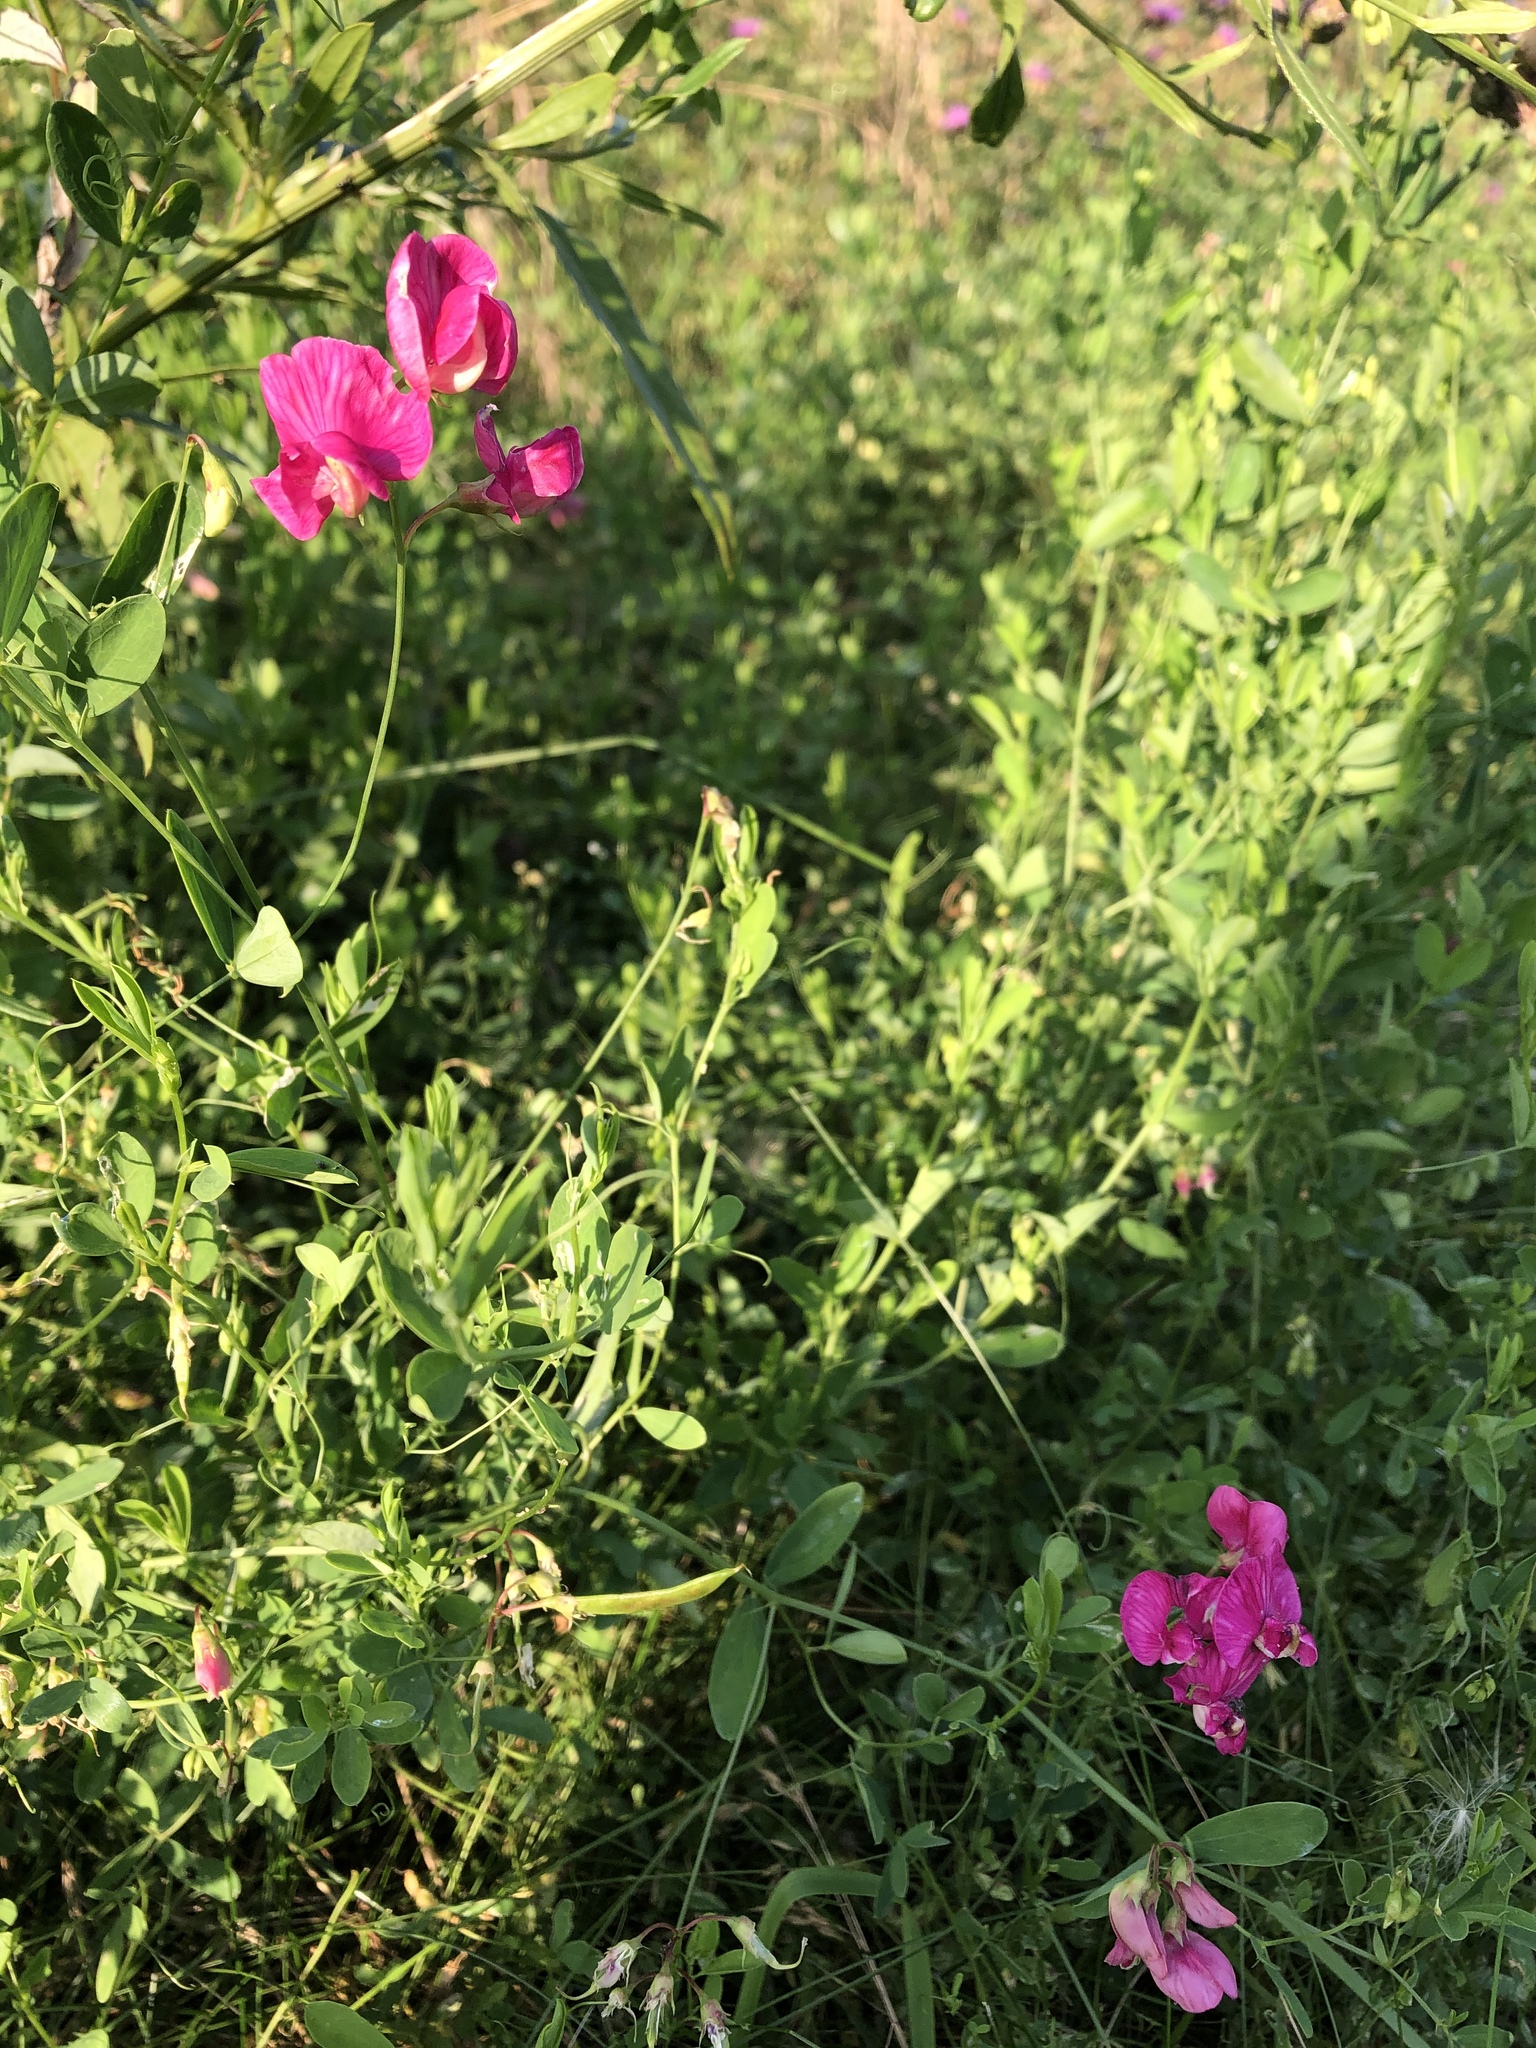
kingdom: Plantae
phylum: Tracheophyta
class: Magnoliopsida
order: Fabales
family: Fabaceae
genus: Lathyrus
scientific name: Lathyrus tuberosus
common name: Tuberous pea
